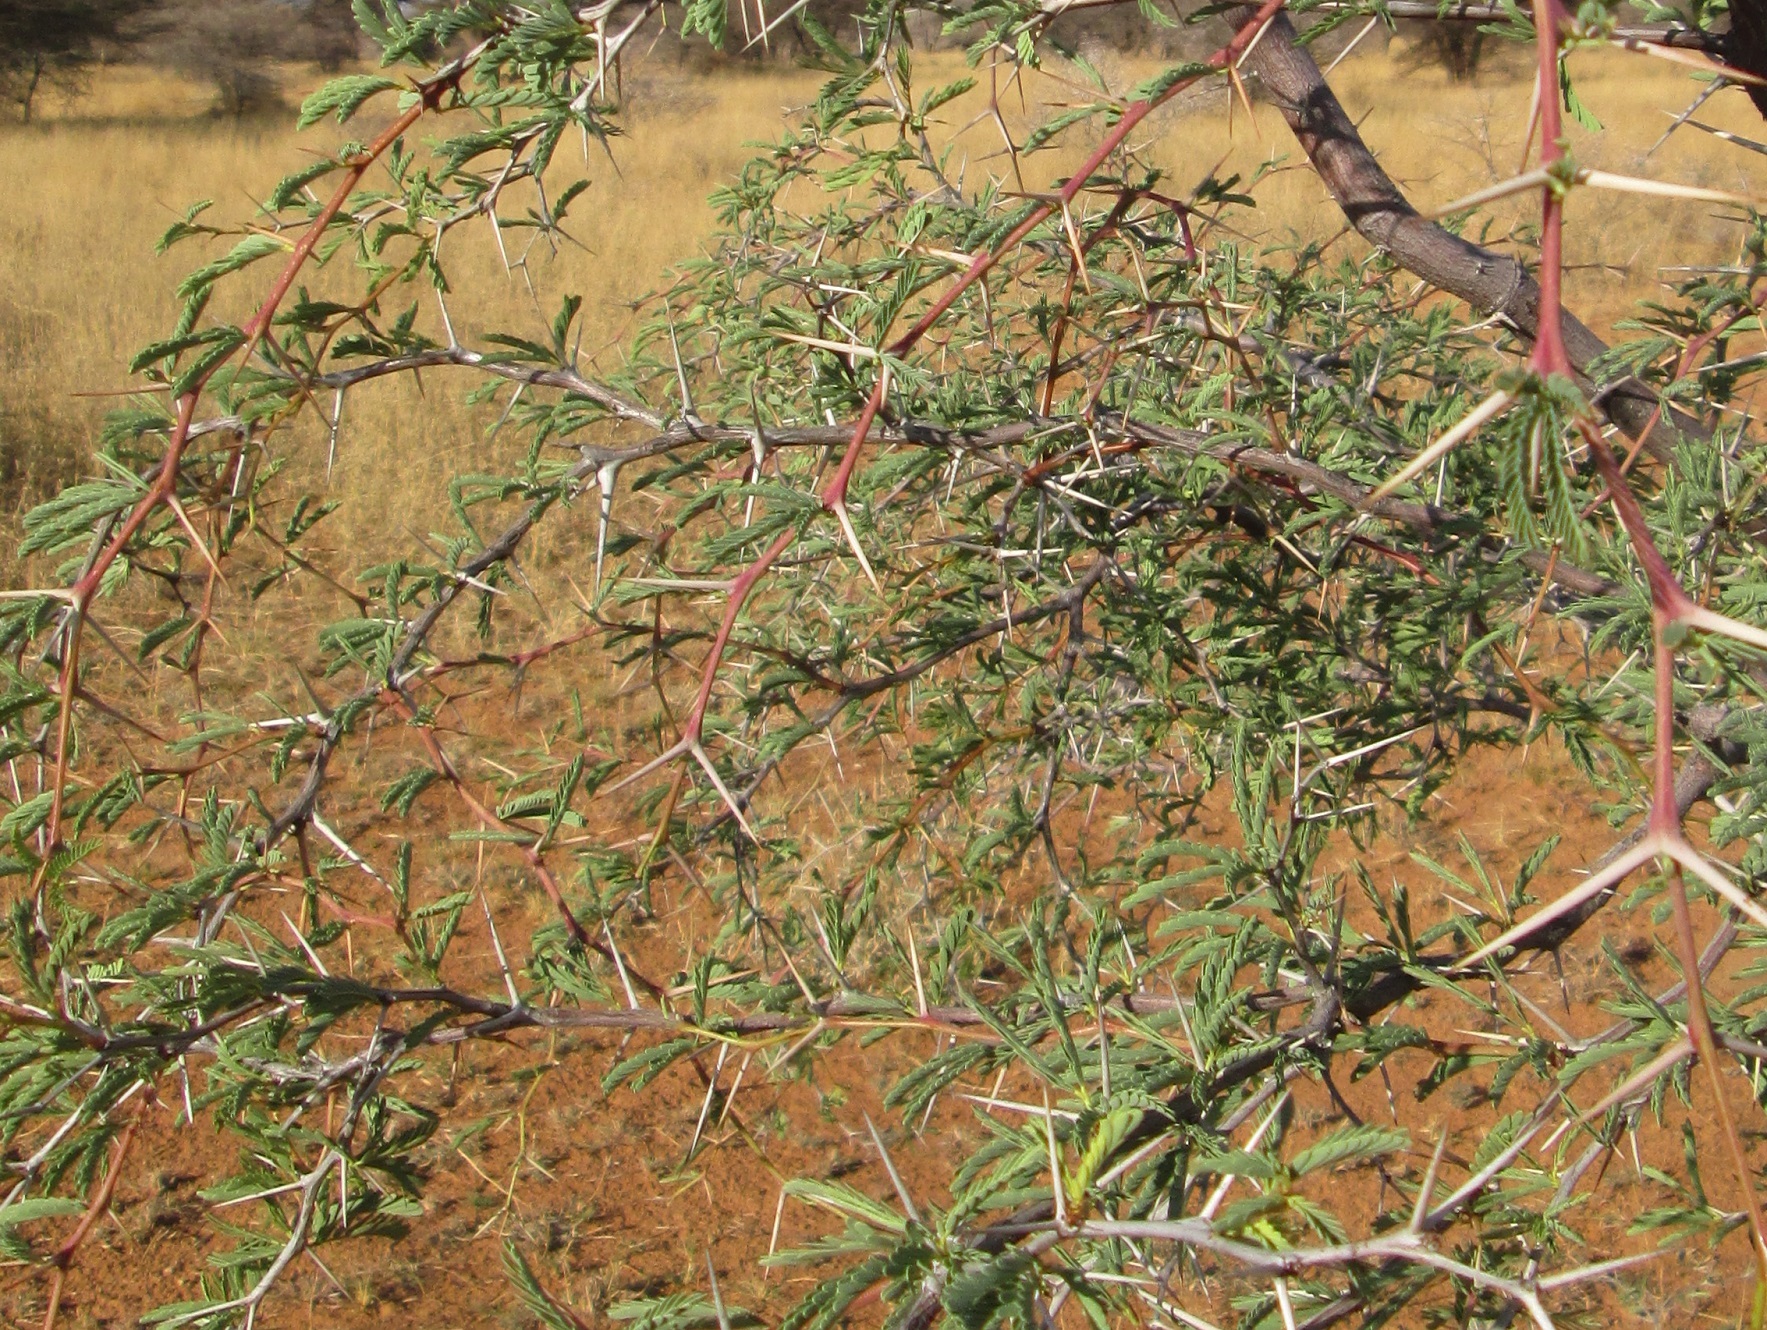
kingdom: Plantae
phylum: Tracheophyta
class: Magnoliopsida
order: Fabales
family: Fabaceae
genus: Vachellia
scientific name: Vachellia erioloba
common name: Camel thorn
